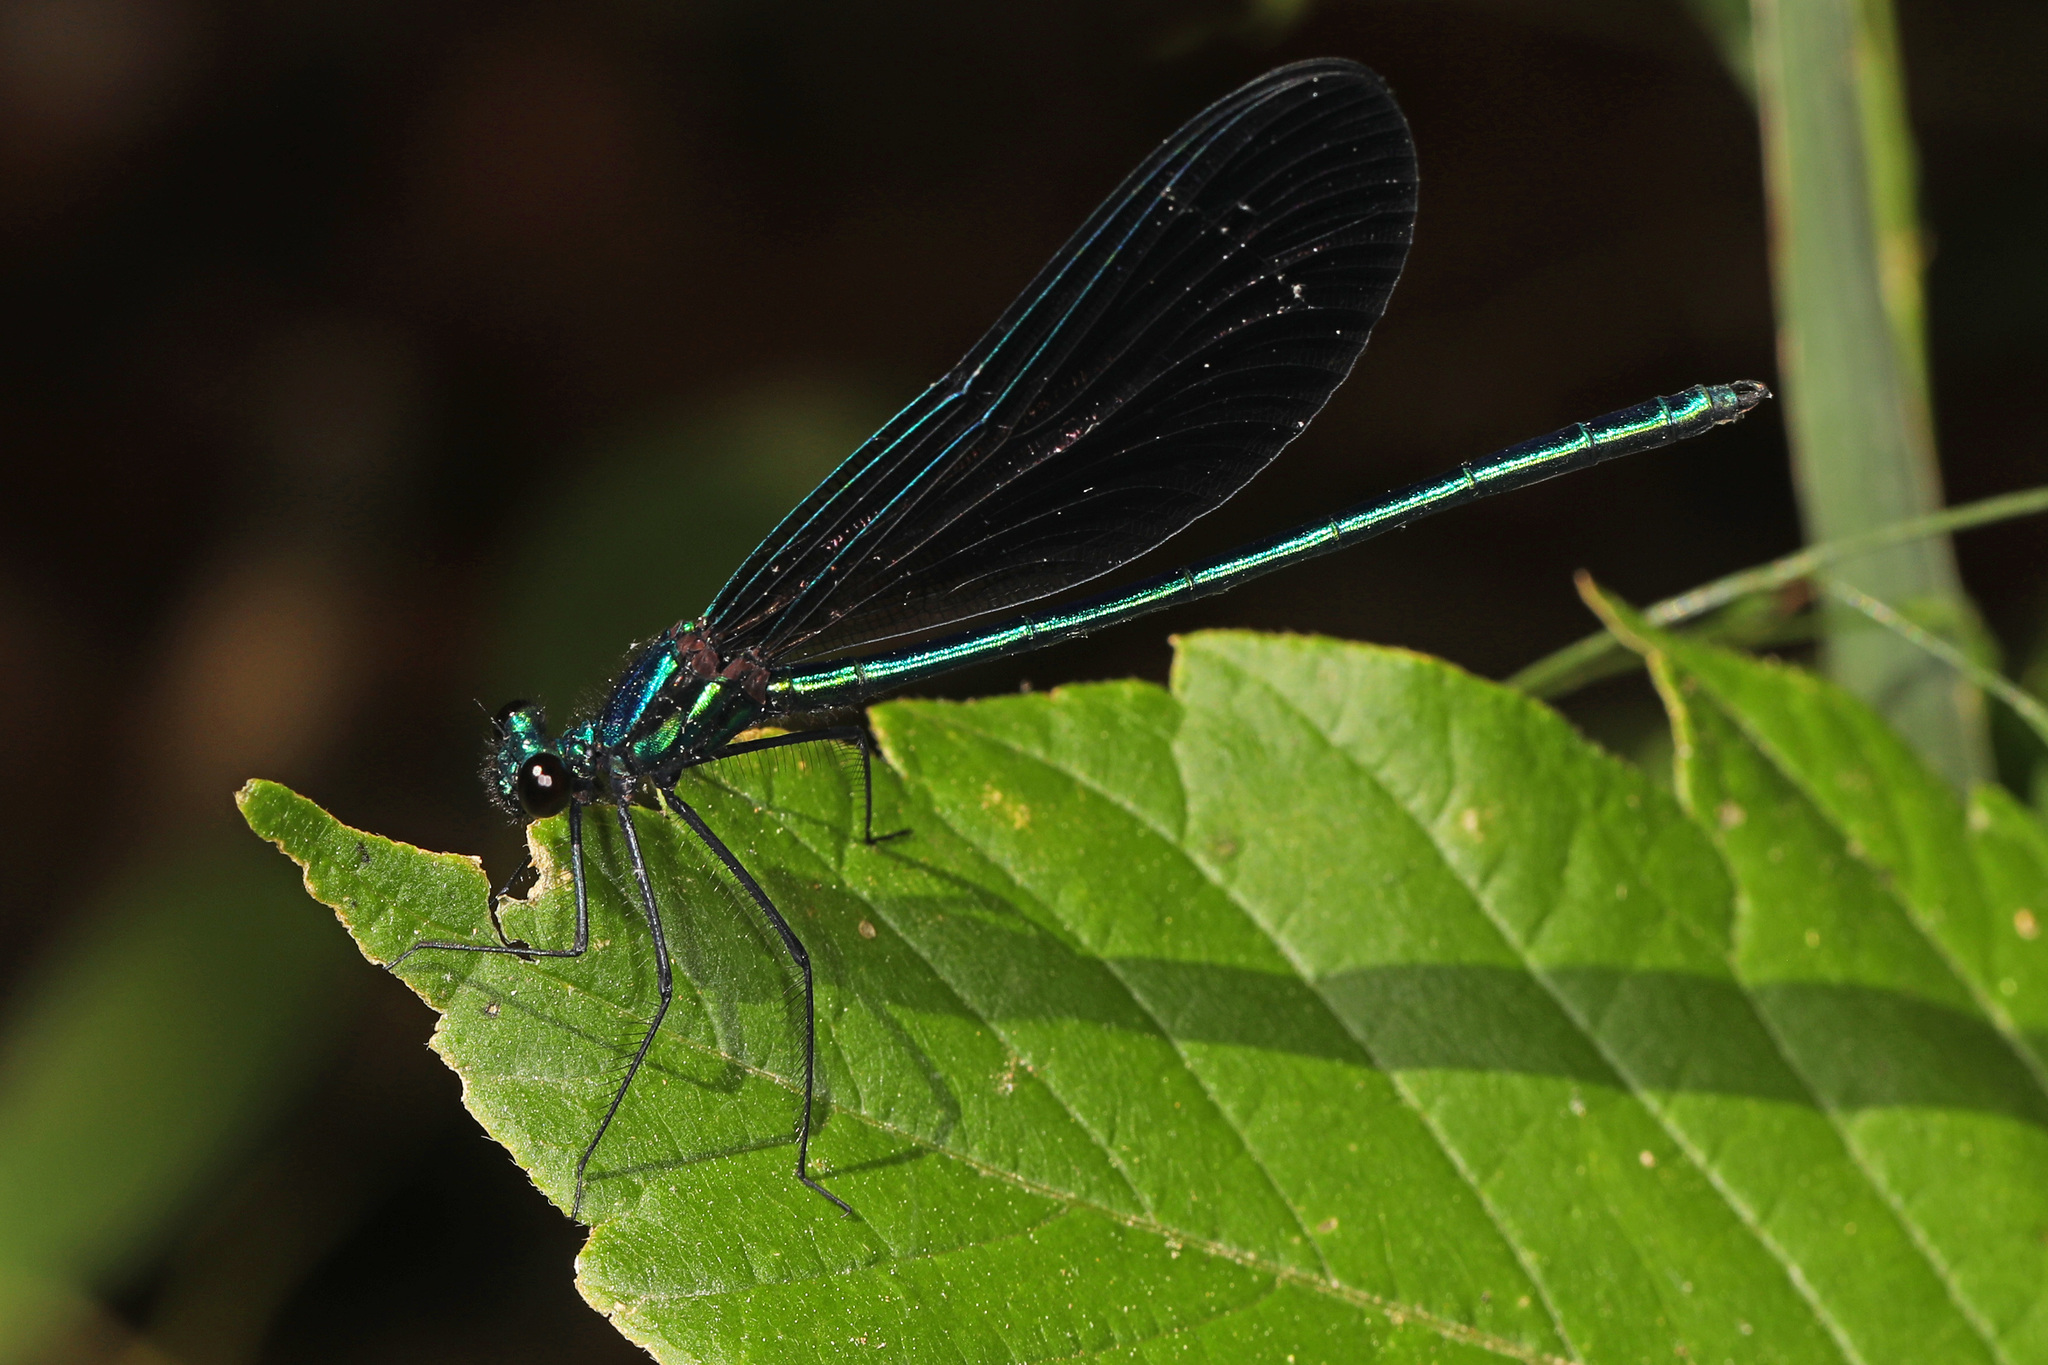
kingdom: Animalia
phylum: Arthropoda
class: Insecta
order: Odonata
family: Calopterygidae
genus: Calopteryx
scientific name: Calopteryx maculata
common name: Ebony jewelwing
